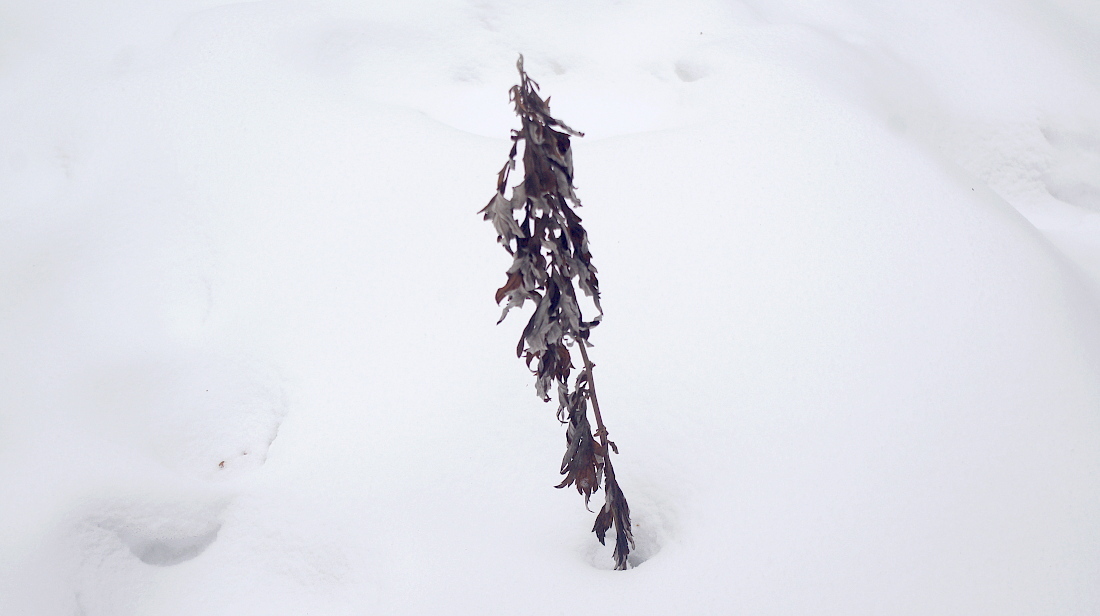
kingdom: Plantae
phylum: Tracheophyta
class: Magnoliopsida
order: Asterales
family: Asteraceae
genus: Artemisia
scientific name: Artemisia vulgaris
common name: Mugwort
